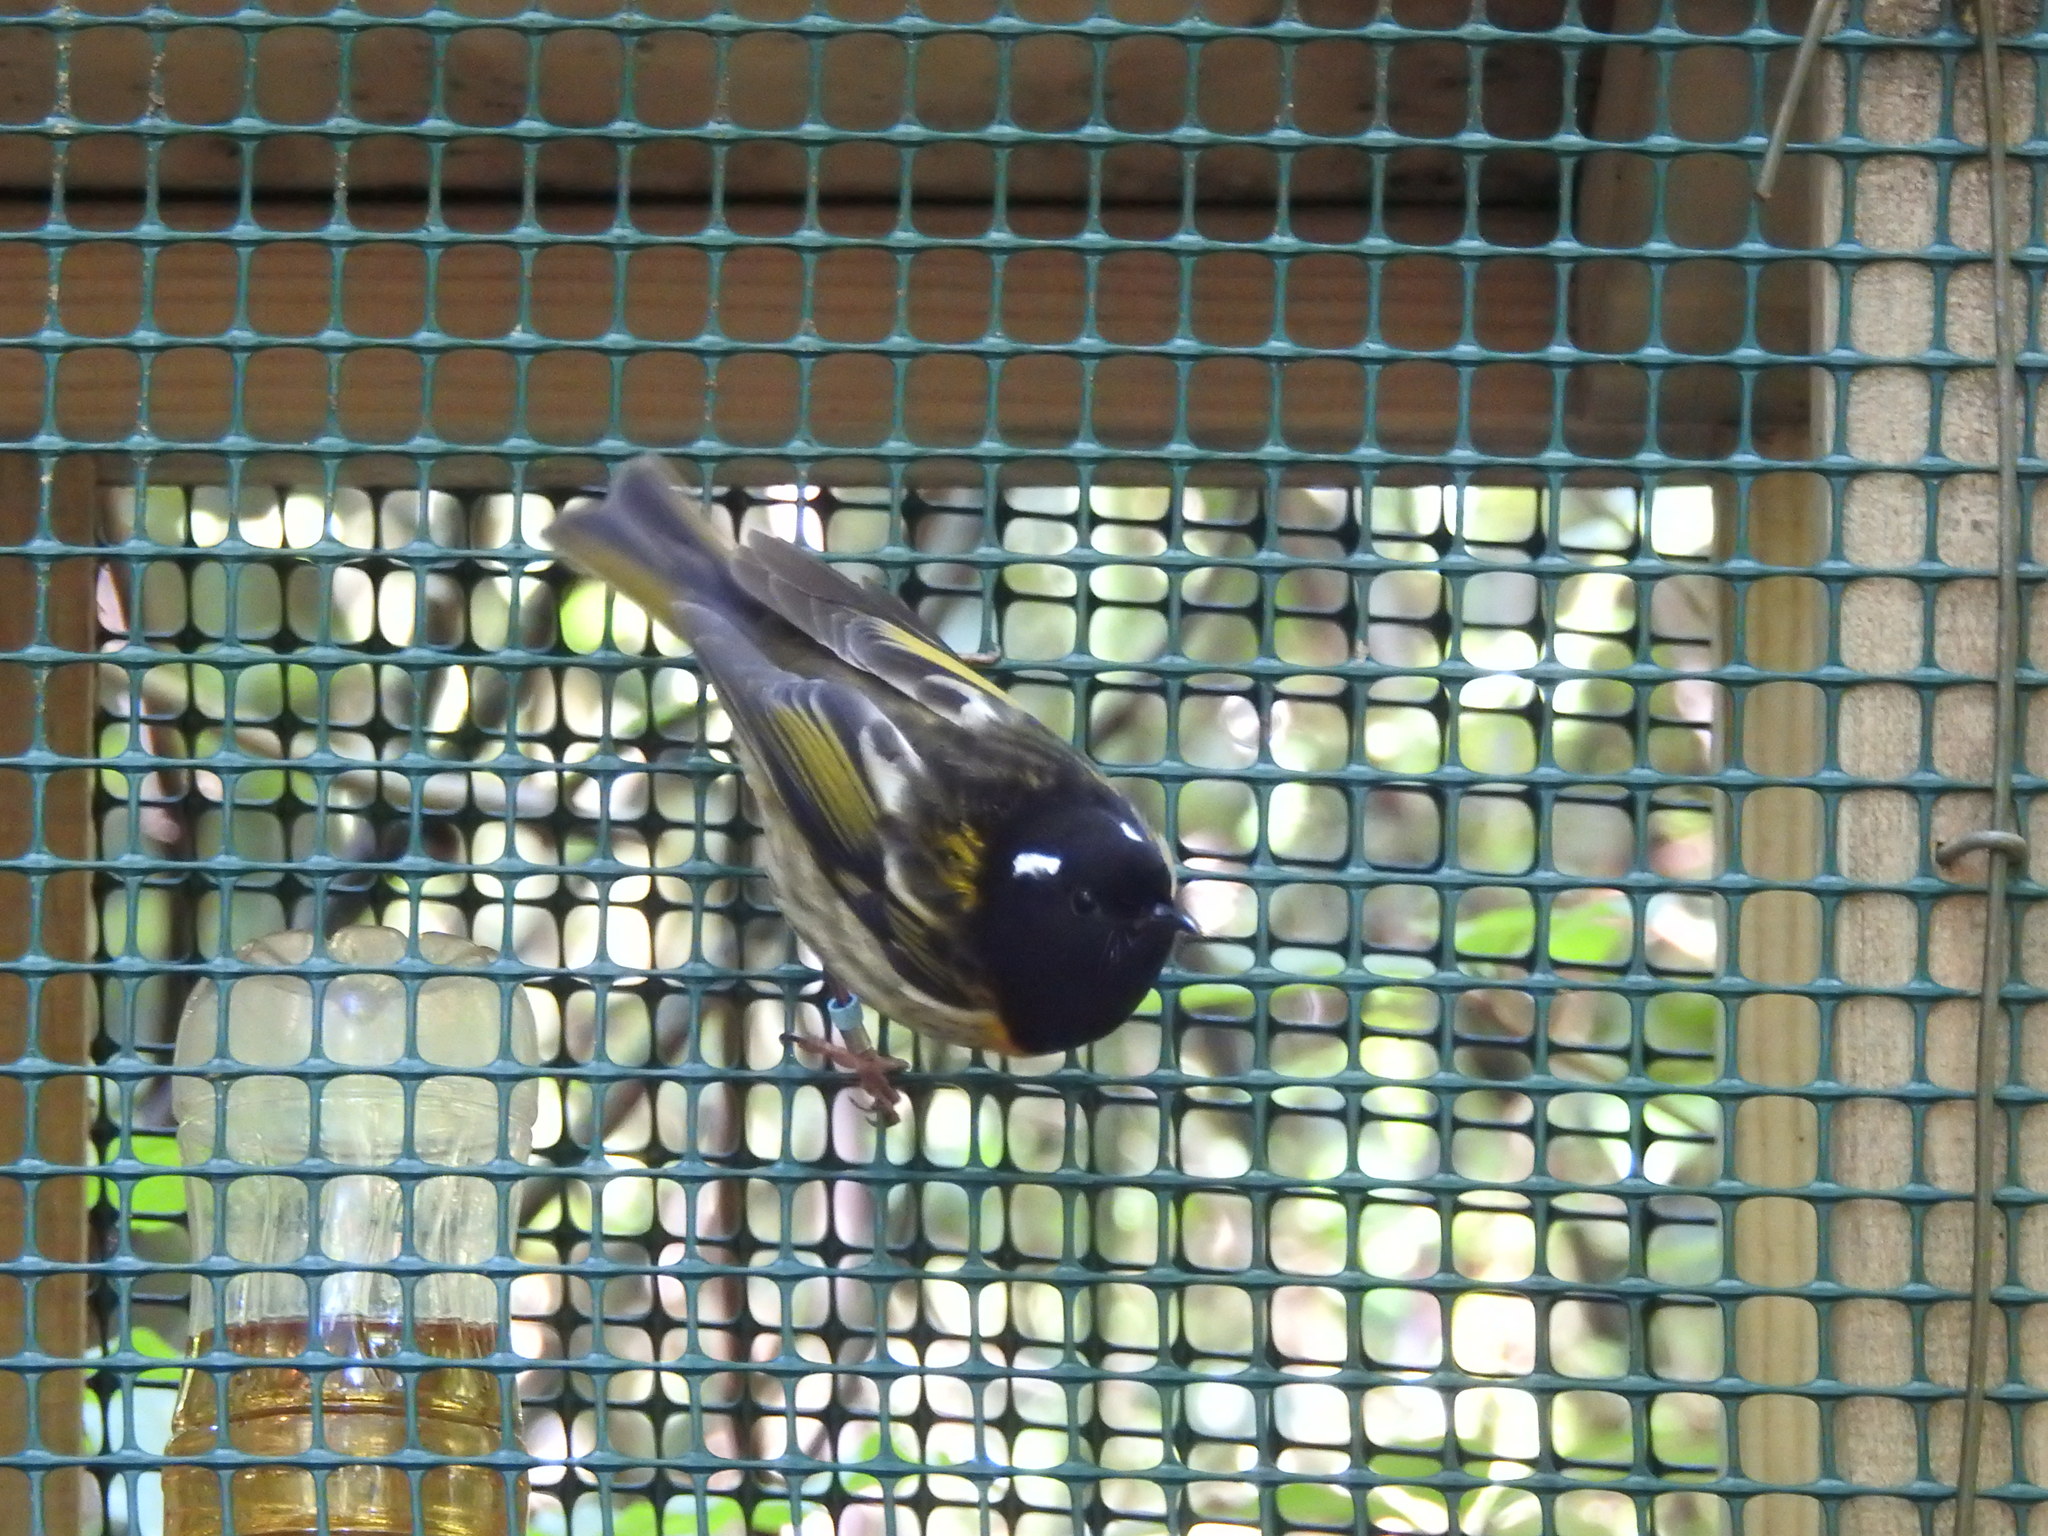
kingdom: Animalia
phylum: Chordata
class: Aves
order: Passeriformes
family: Notiomystidae
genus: Notiomystis
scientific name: Notiomystis cincta
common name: Stitchbird
